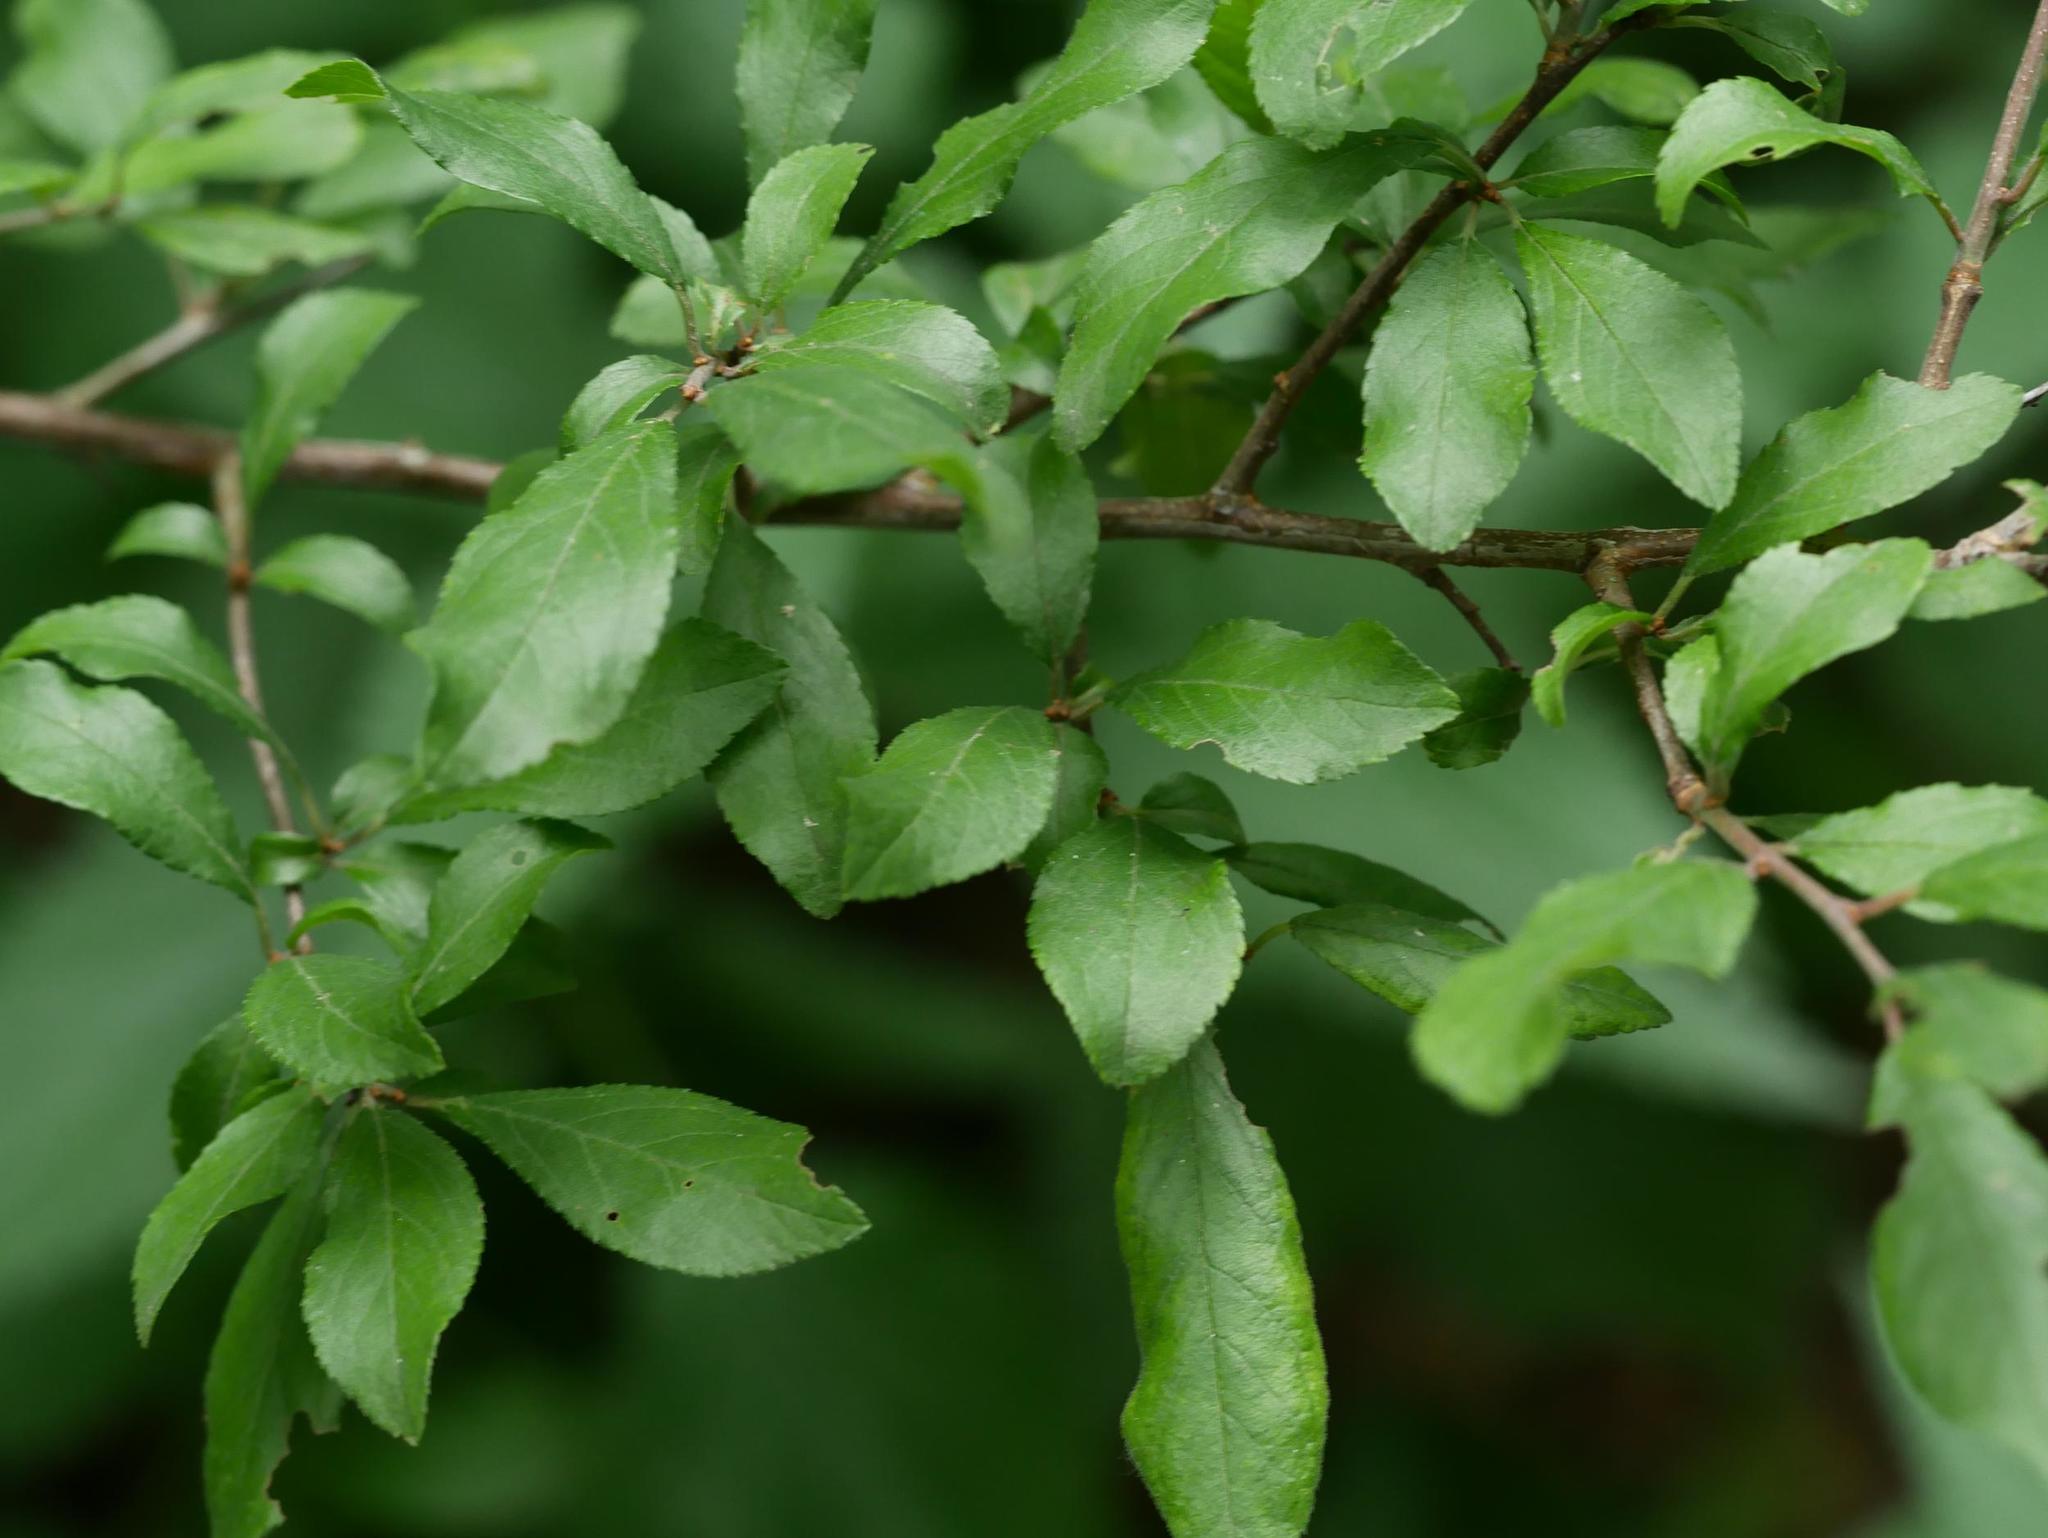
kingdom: Plantae
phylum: Tracheophyta
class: Magnoliopsida
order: Rosales
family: Rosaceae
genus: Prunus
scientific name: Prunus spinosa
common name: Blackthorn
